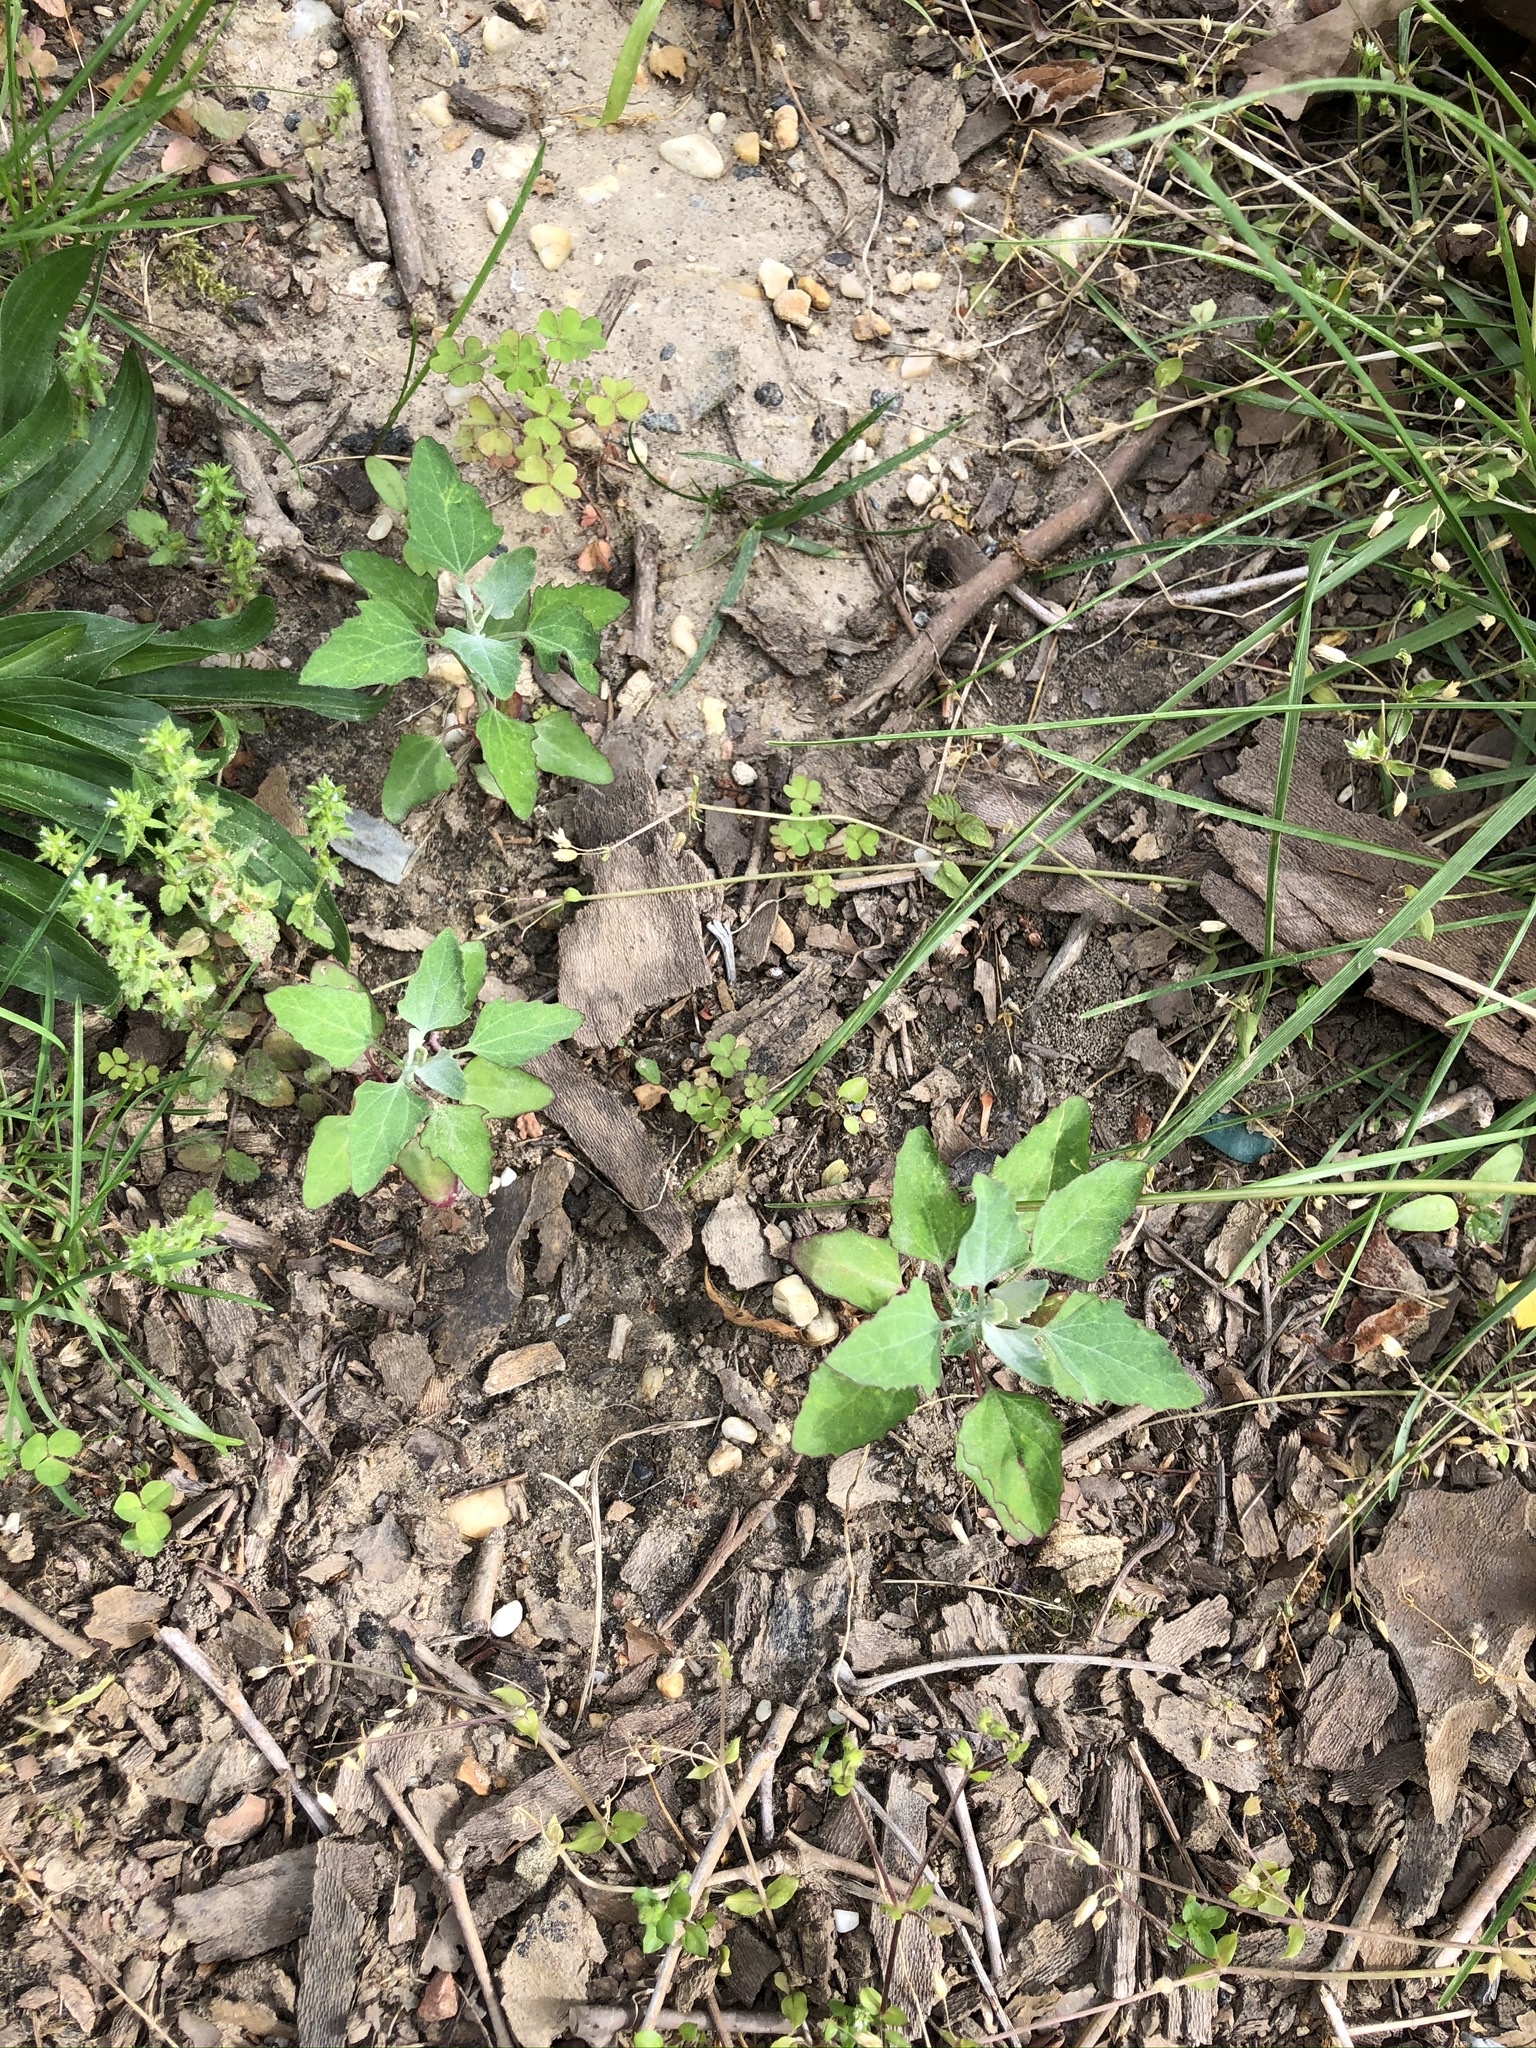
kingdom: Plantae
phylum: Tracheophyta
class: Magnoliopsida
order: Caryophyllales
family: Amaranthaceae
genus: Chenopodium
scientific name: Chenopodium album
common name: Fat-hen
